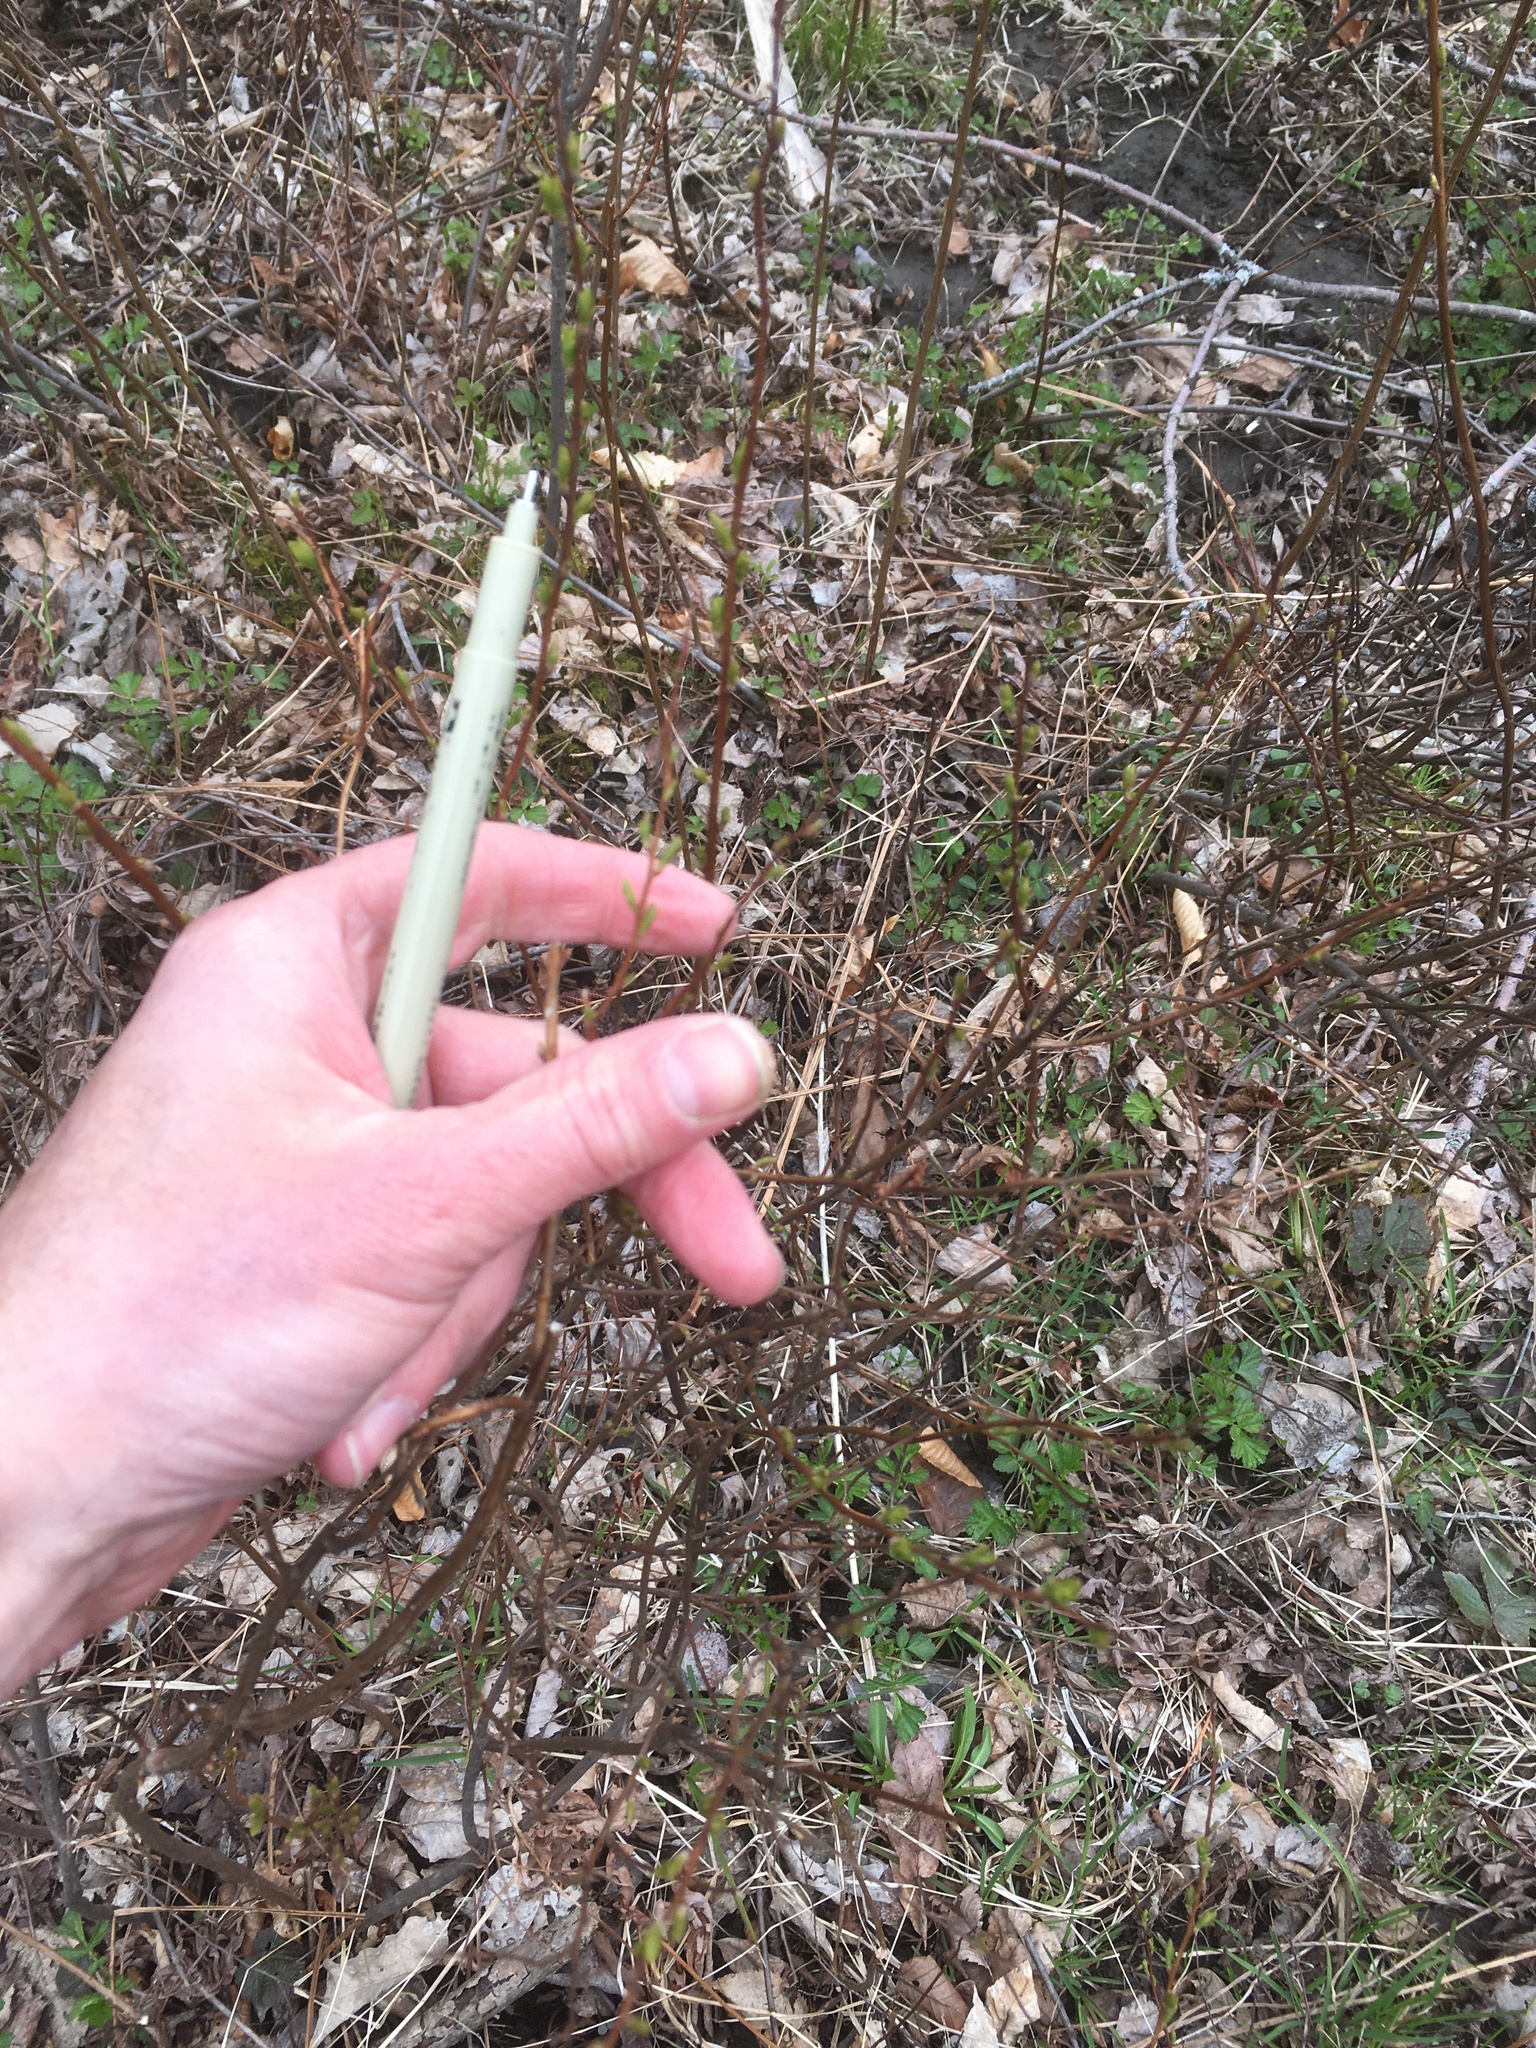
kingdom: Plantae
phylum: Tracheophyta
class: Magnoliopsida
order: Rosales
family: Rosaceae
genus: Spiraea
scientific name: Spiraea alba
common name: Pale bridewort
